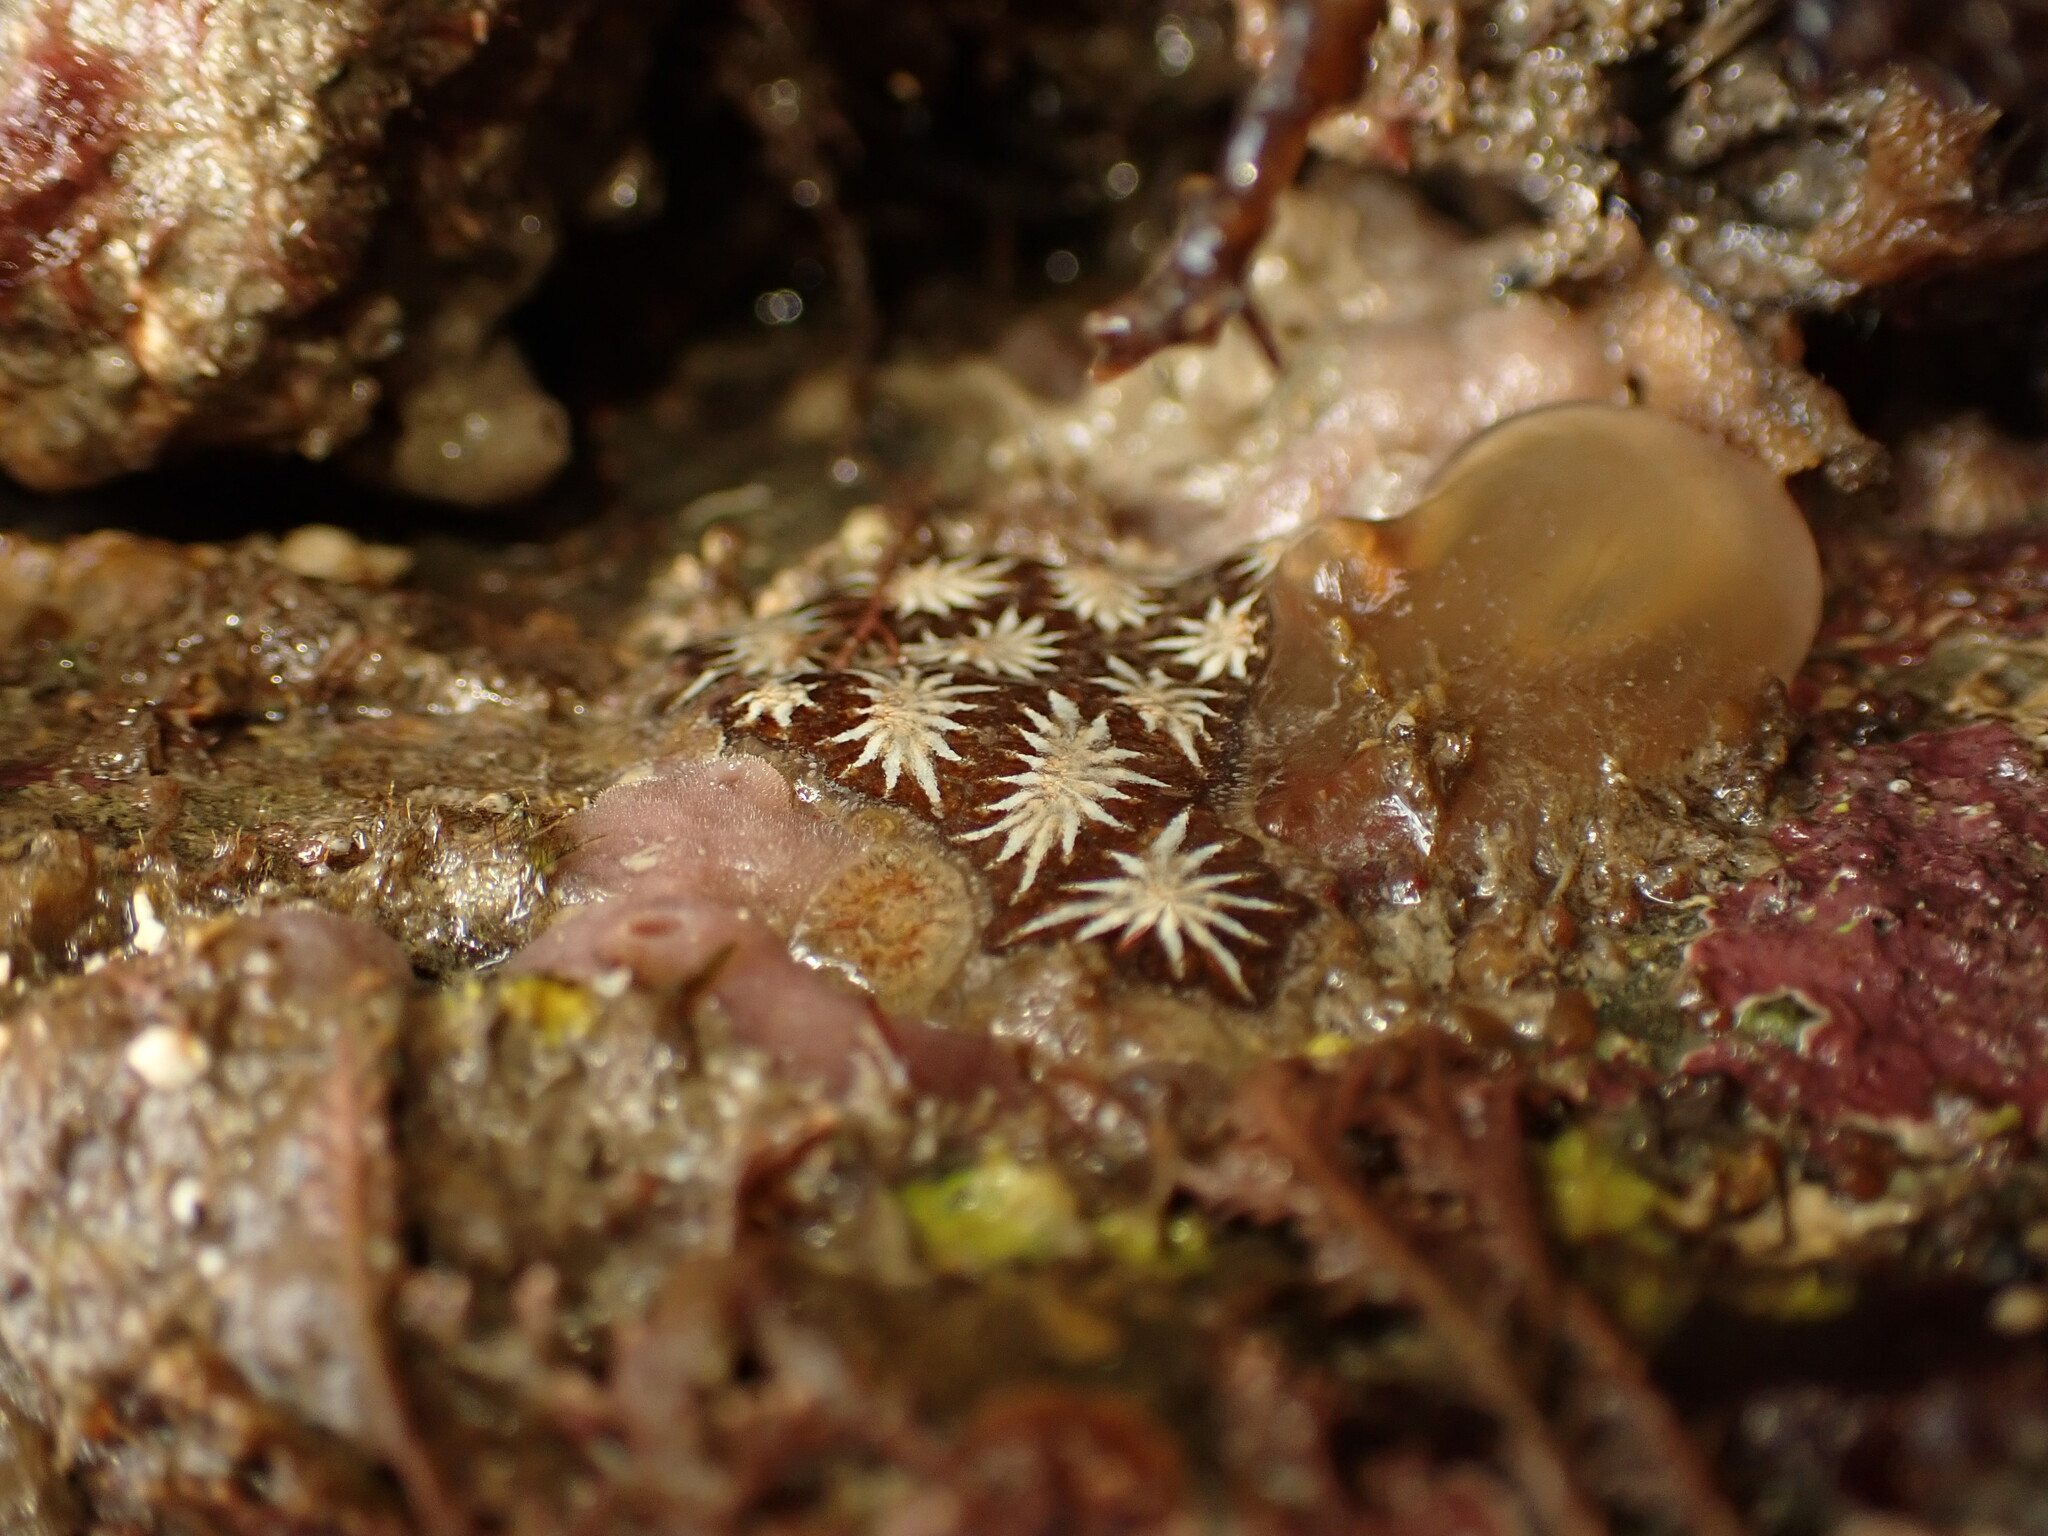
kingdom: Animalia
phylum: Chordata
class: Ascidiacea
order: Stolidobranchia
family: Styelidae
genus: Botryllus
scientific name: Botryllus schlosseri
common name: Golden star tunicate
